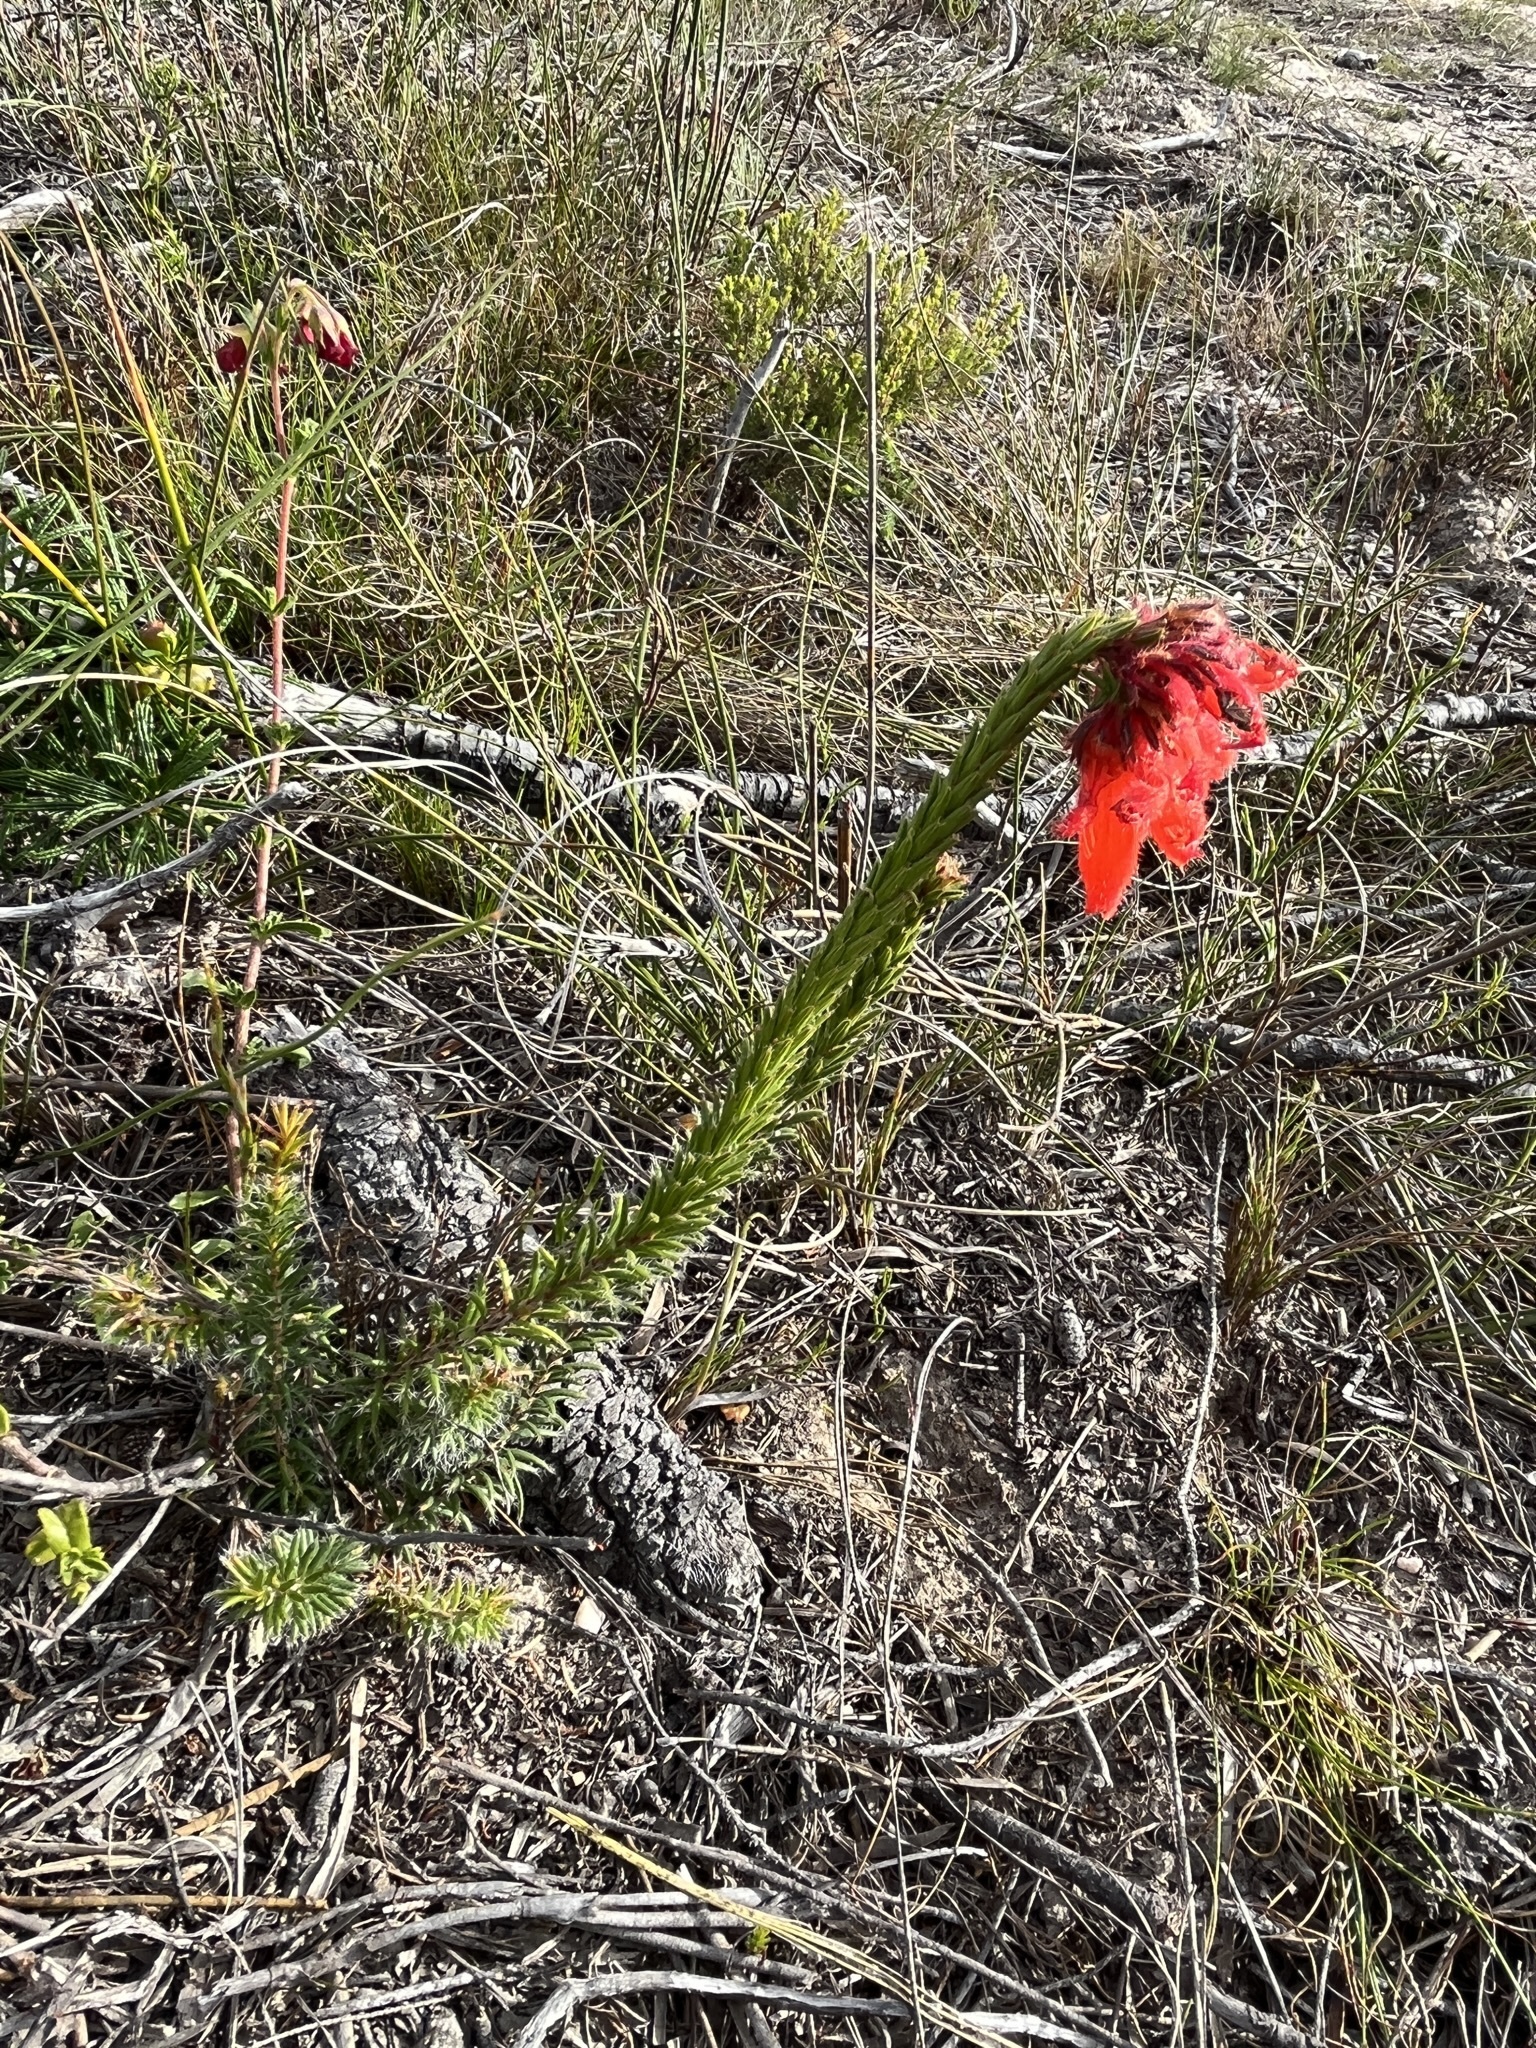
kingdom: Plantae
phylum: Tracheophyta
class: Magnoliopsida
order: Ericales
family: Ericaceae
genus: Erica
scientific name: Erica cerinthoides
